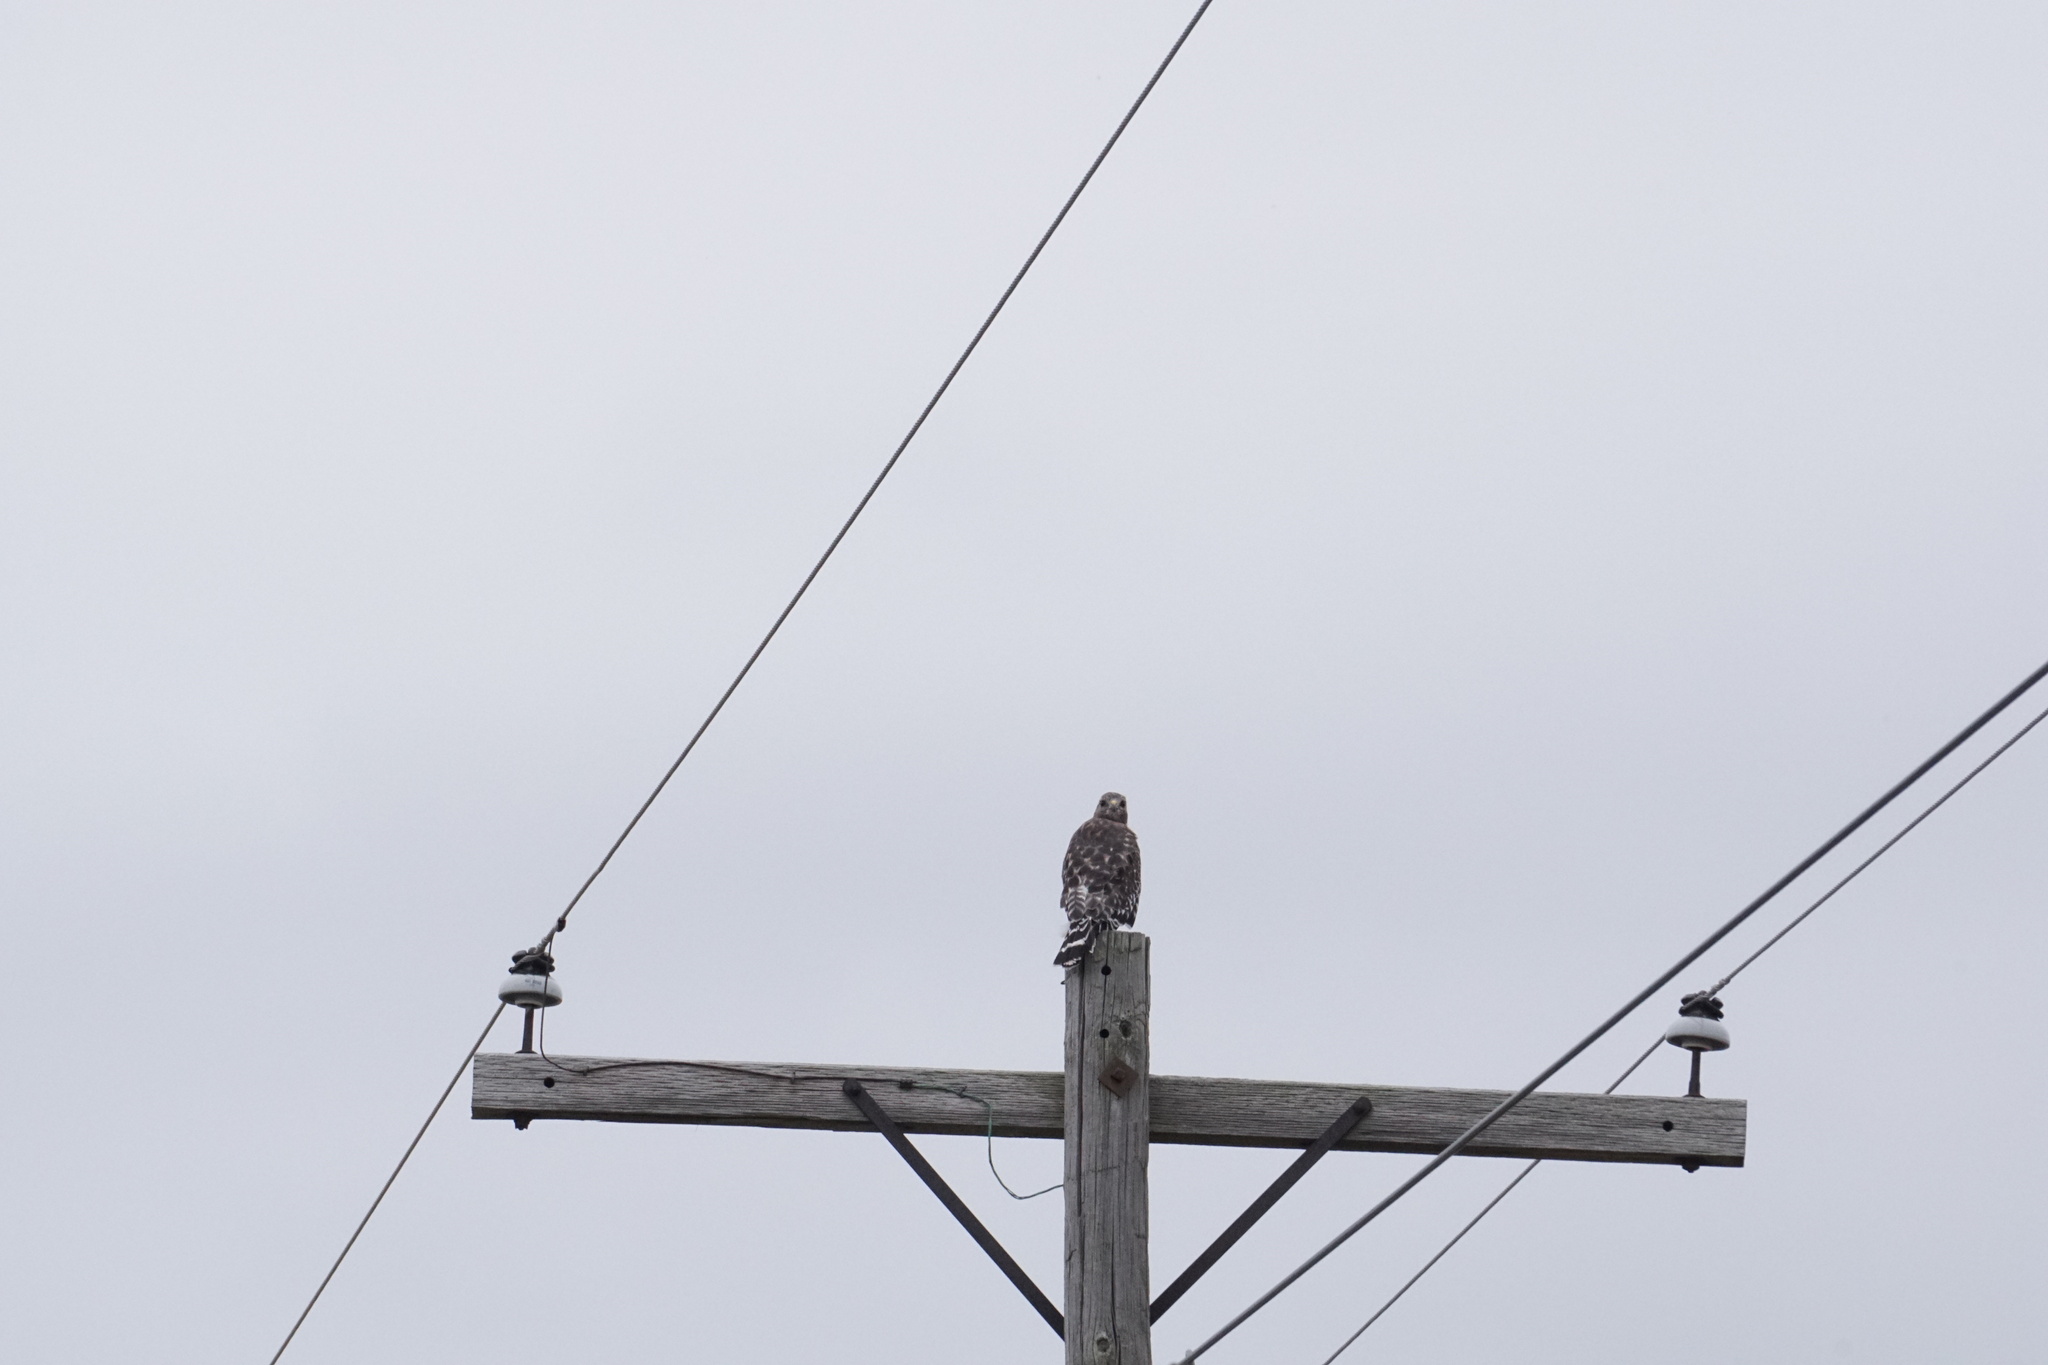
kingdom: Animalia
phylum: Chordata
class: Aves
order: Accipitriformes
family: Accipitridae
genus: Buteo
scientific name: Buteo lineatus
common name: Red-shouldered hawk
